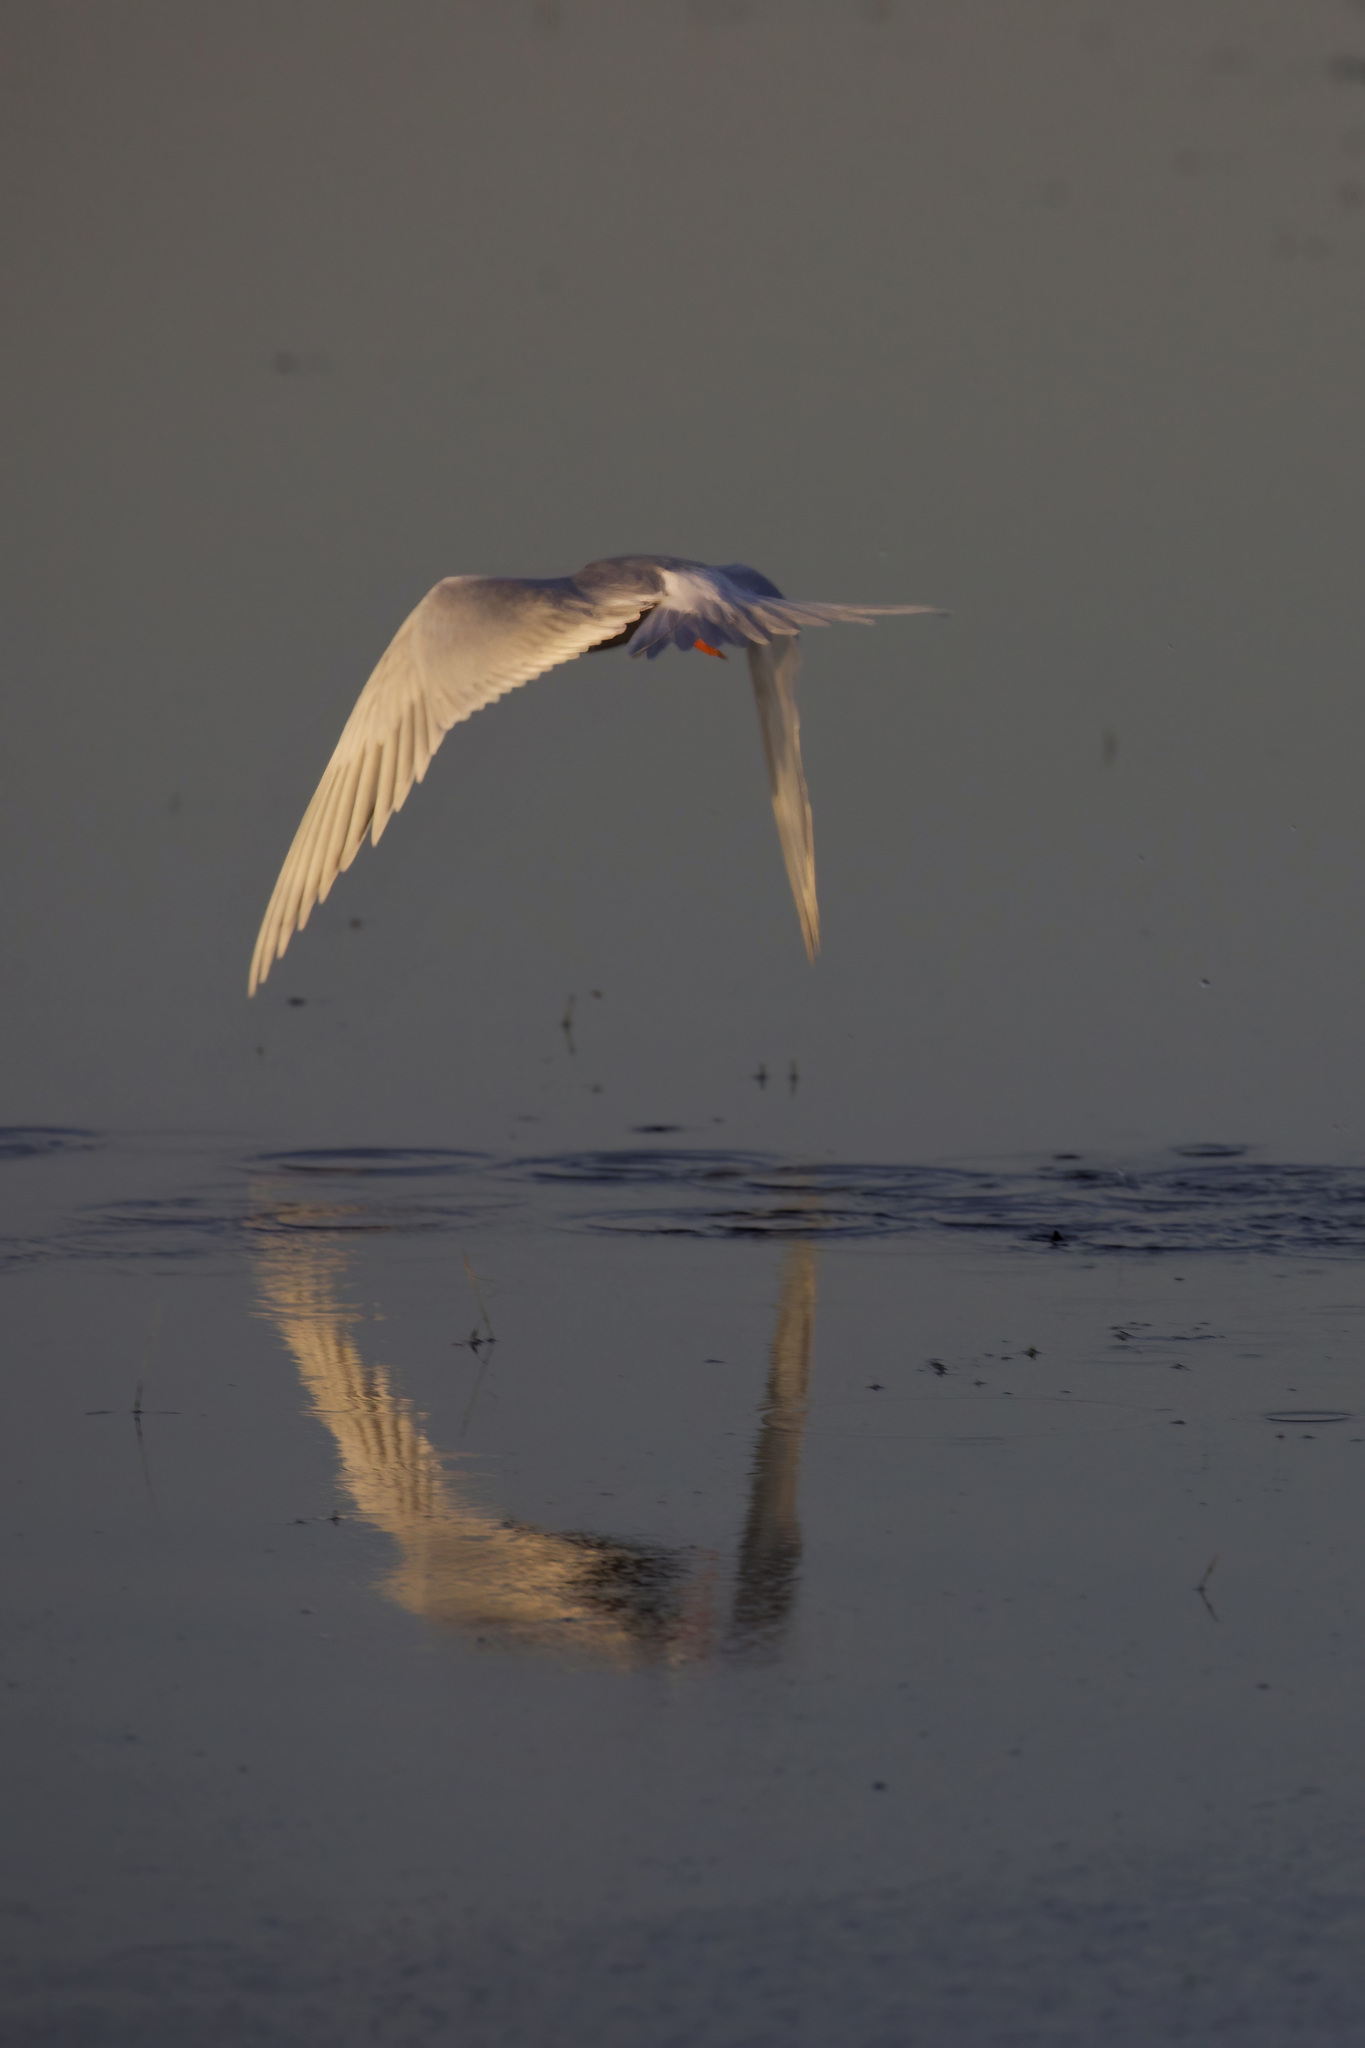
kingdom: Animalia
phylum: Chordata
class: Aves
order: Charadriiformes
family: Laridae
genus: Sterna
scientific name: Sterna forsteri
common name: Forster's tern
